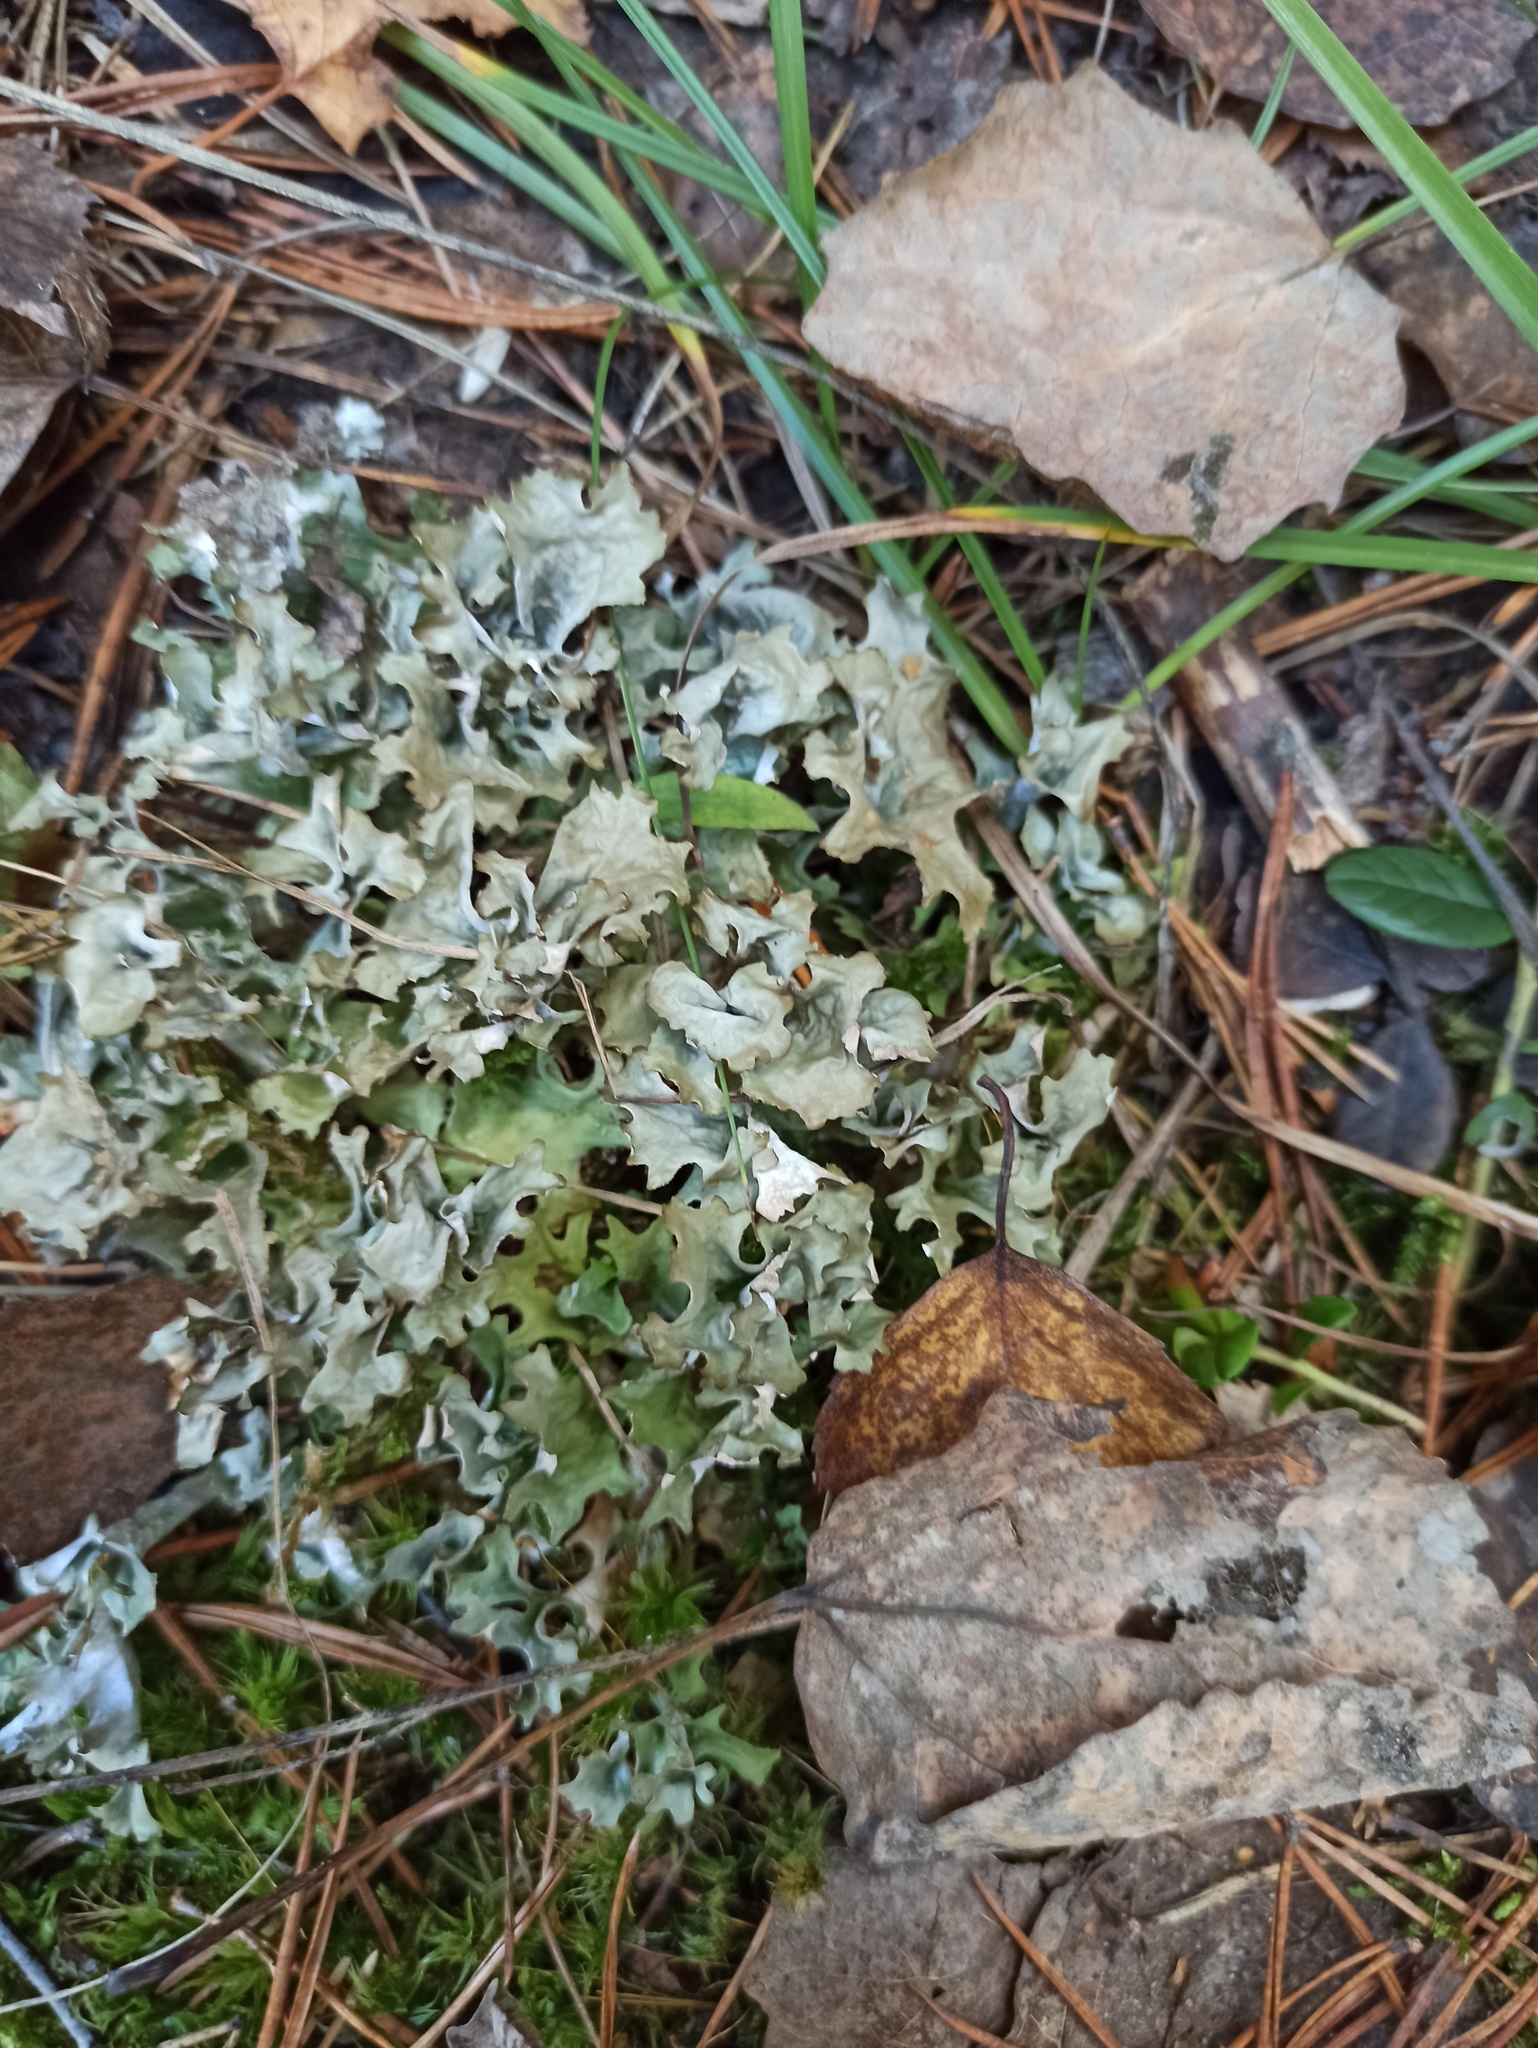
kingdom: Fungi
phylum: Ascomycota
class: Lecanoromycetes
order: Lecanorales
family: Parmeliaceae
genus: Cetraria
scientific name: Cetraria islandica
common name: Iceland lichen
